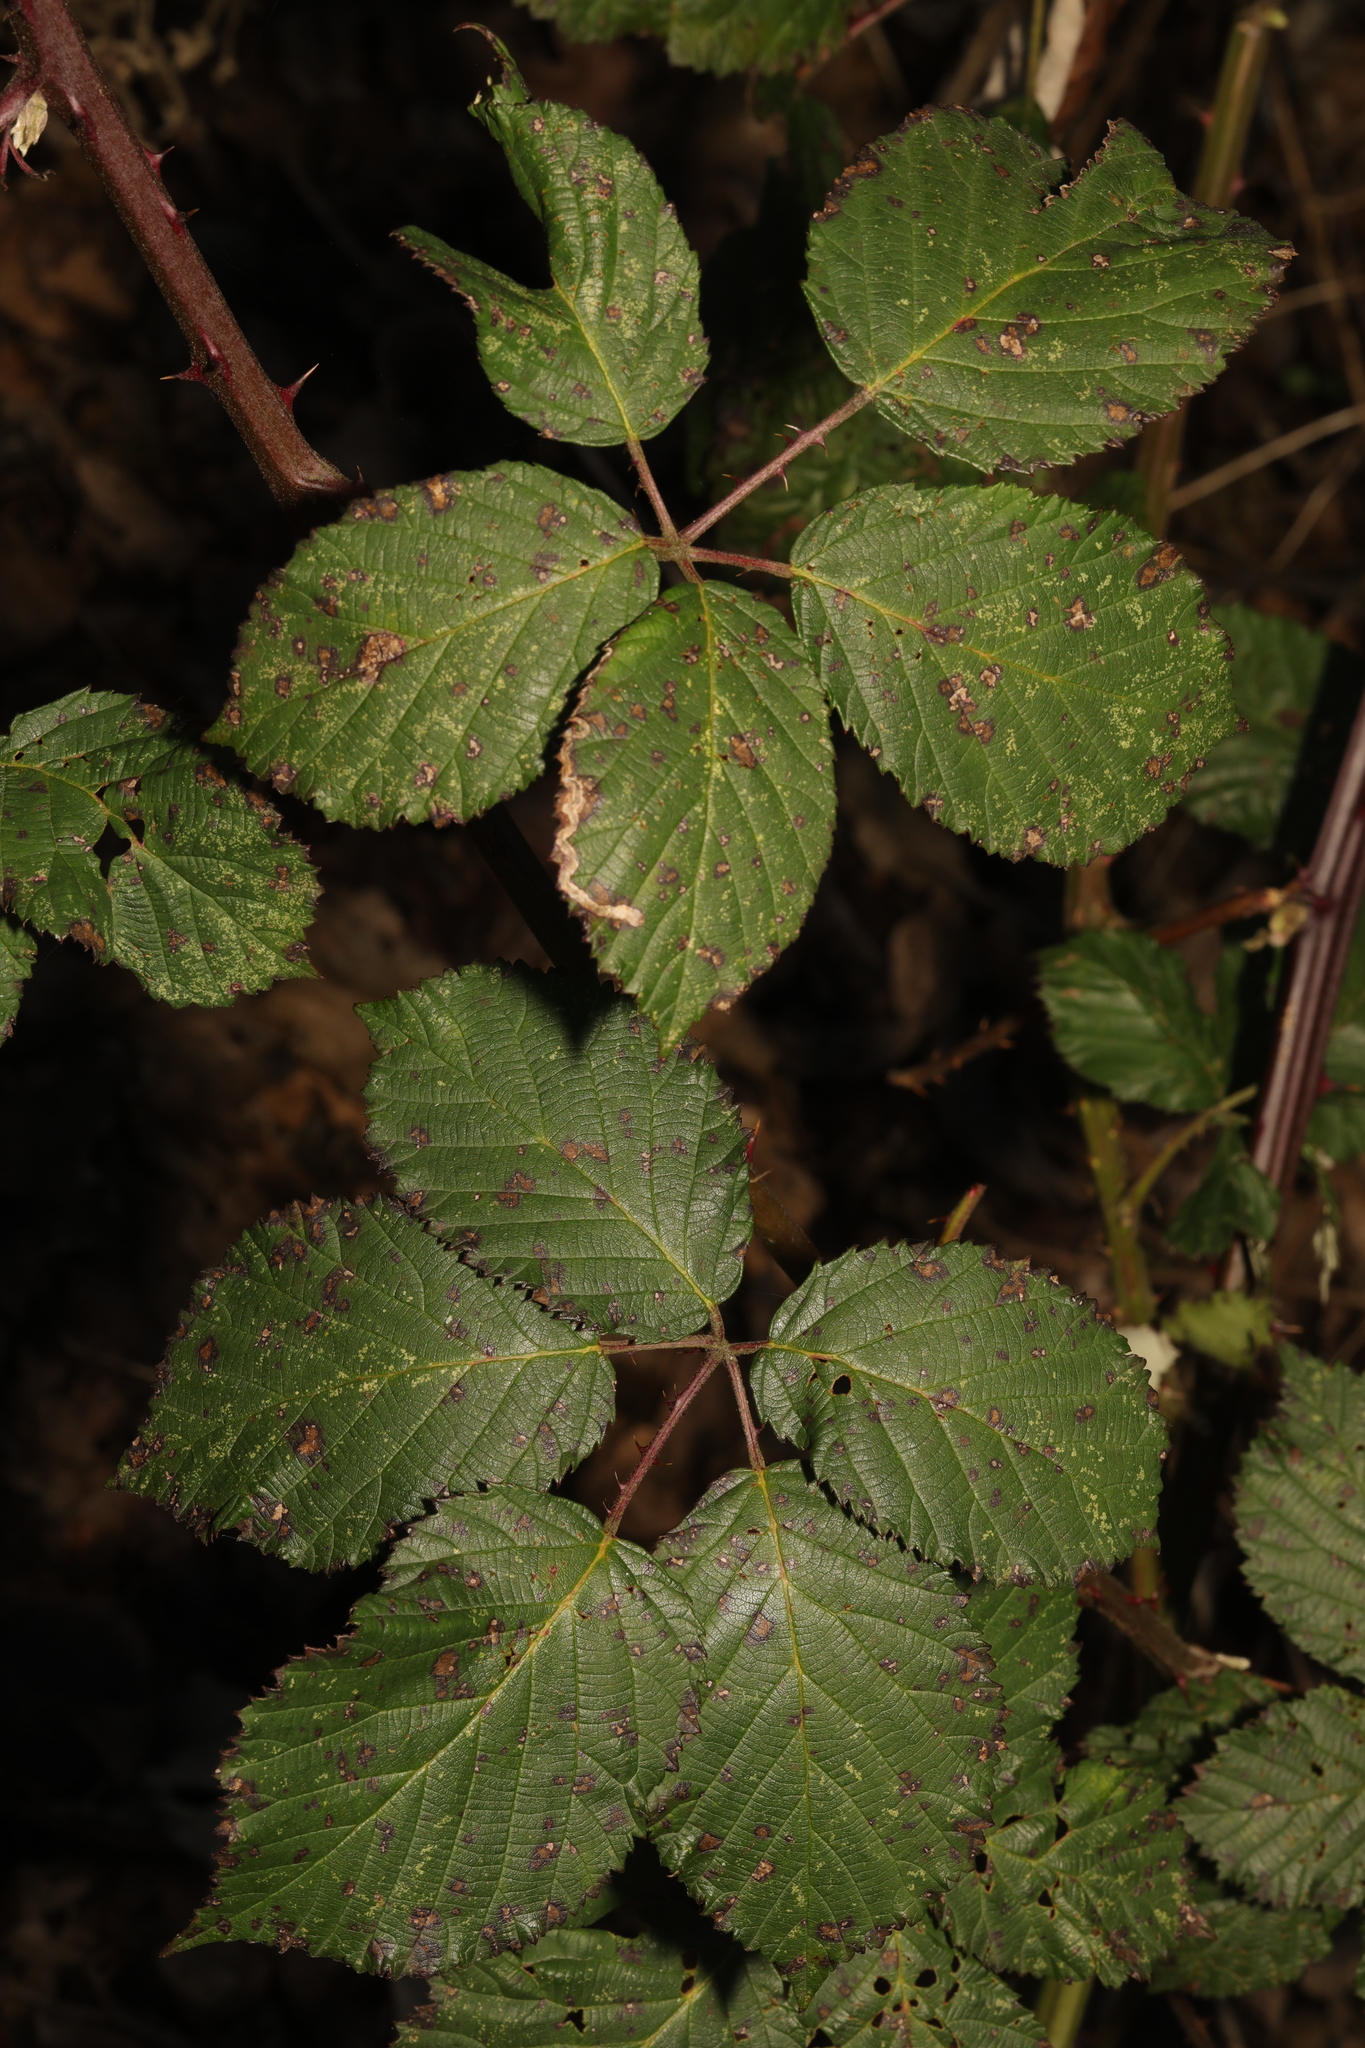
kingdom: Plantae
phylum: Tracheophyta
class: Magnoliopsida
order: Rosales
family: Rosaceae
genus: Rubus
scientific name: Rubus armeniacus
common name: Himalayan blackberry
